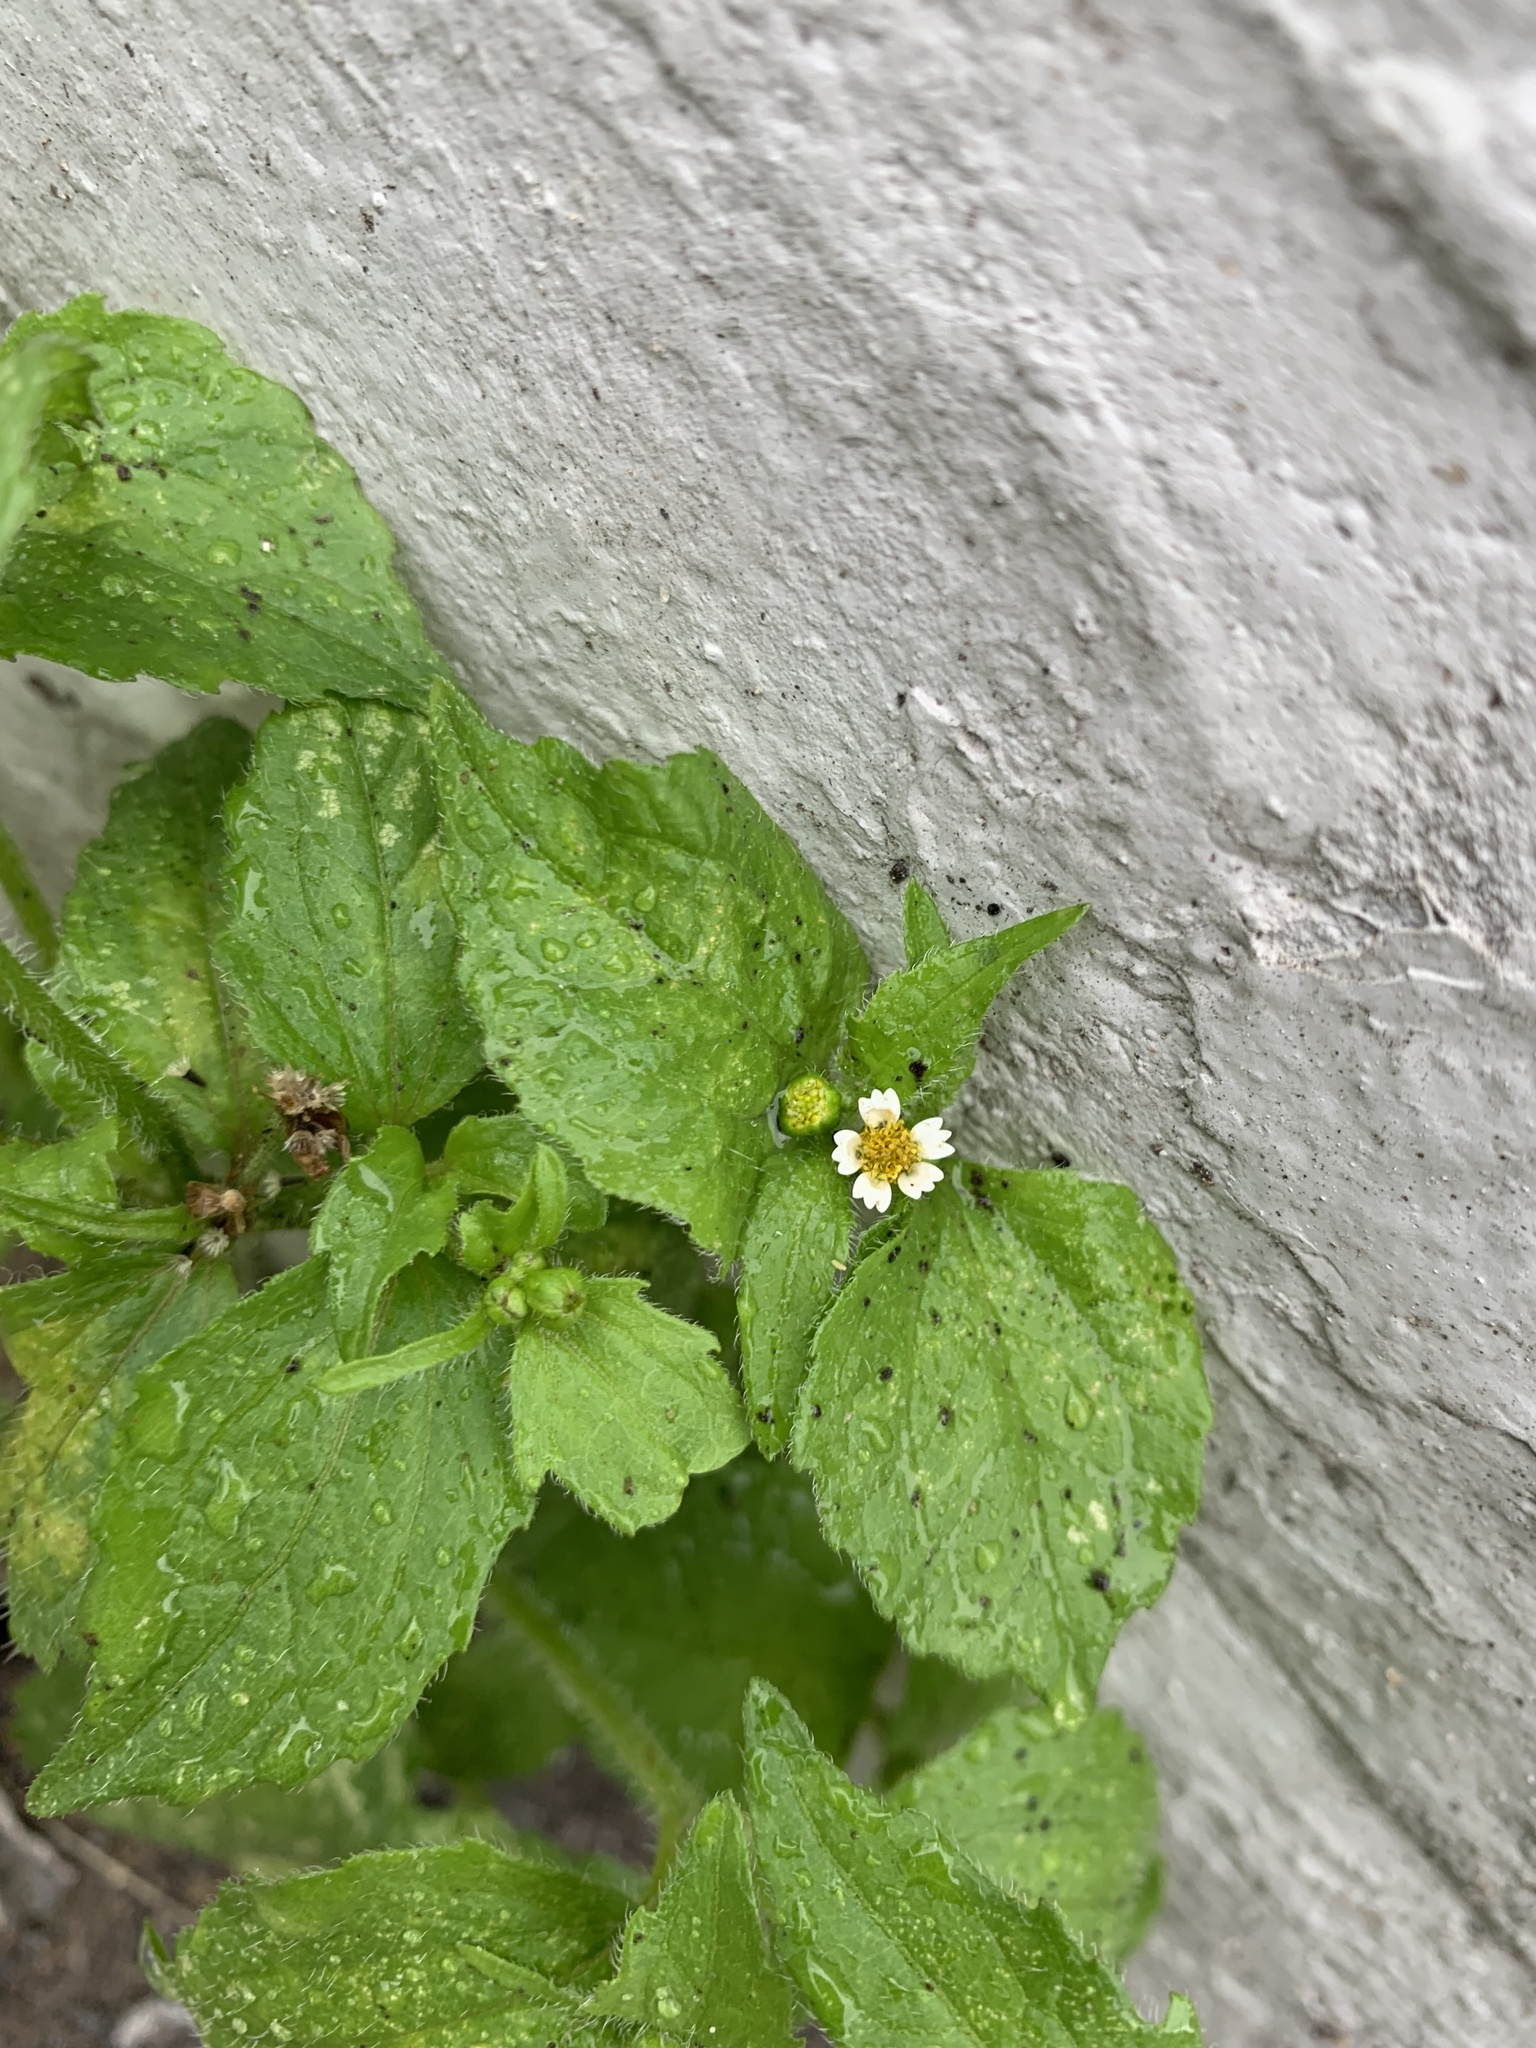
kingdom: Plantae
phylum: Tracheophyta
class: Magnoliopsida
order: Asterales
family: Asteraceae
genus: Galinsoga
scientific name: Galinsoga quadriradiata
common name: Shaggy soldier
